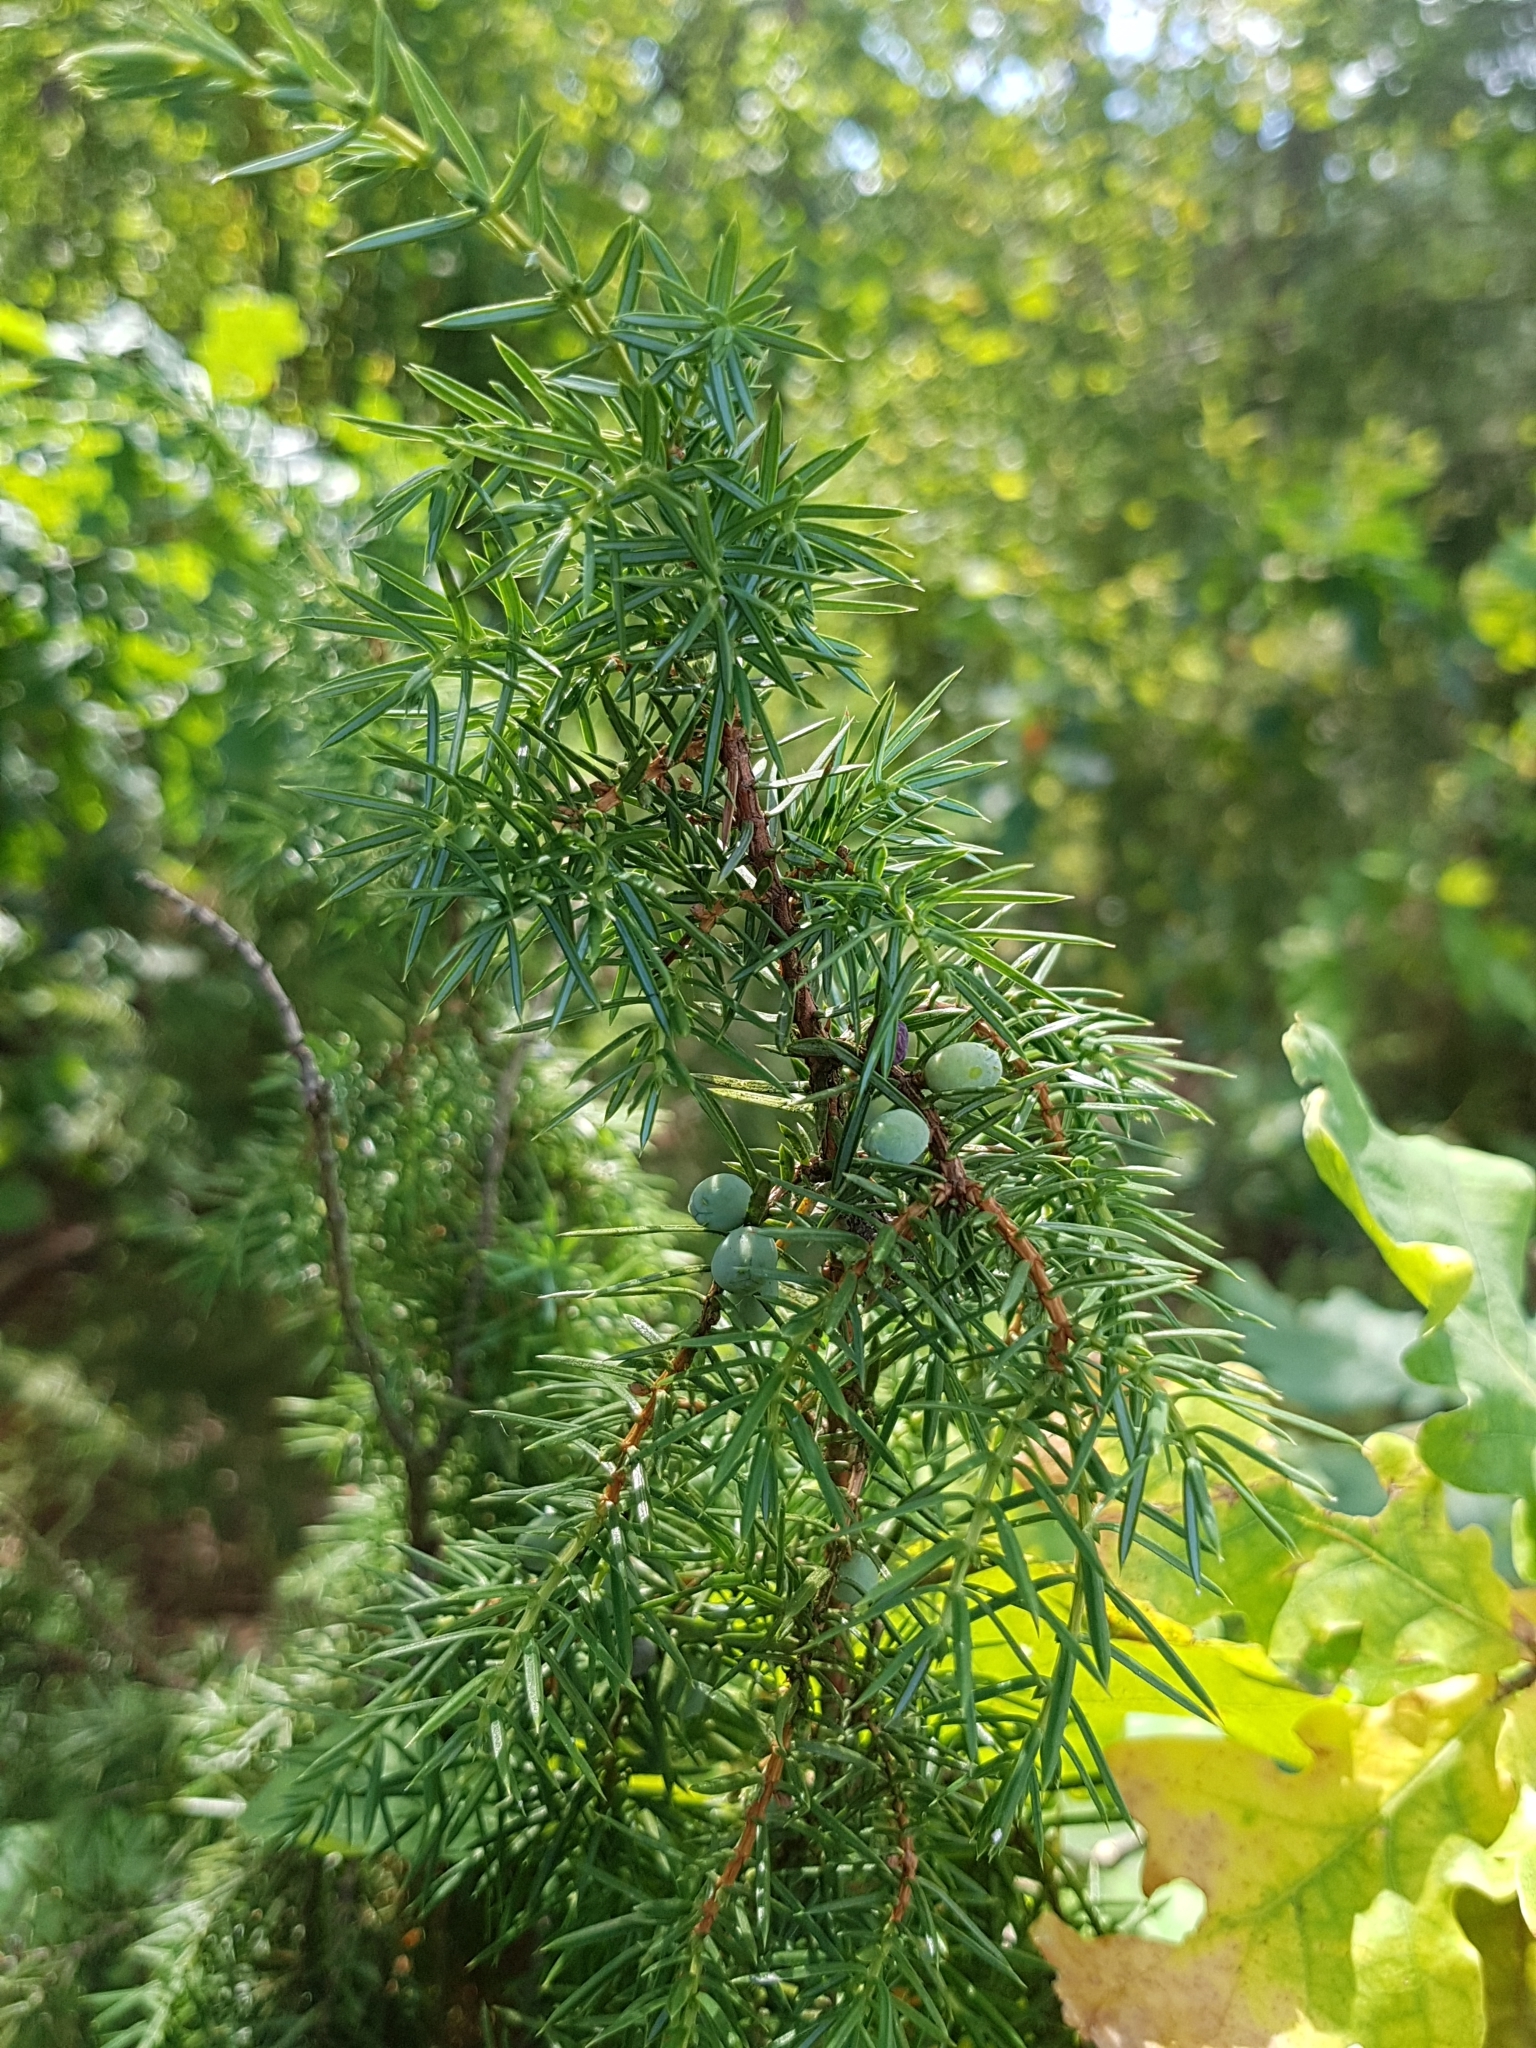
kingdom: Plantae
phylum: Tracheophyta
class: Pinopsida
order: Pinales
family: Cupressaceae
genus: Juniperus
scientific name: Juniperus communis
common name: Common juniper
